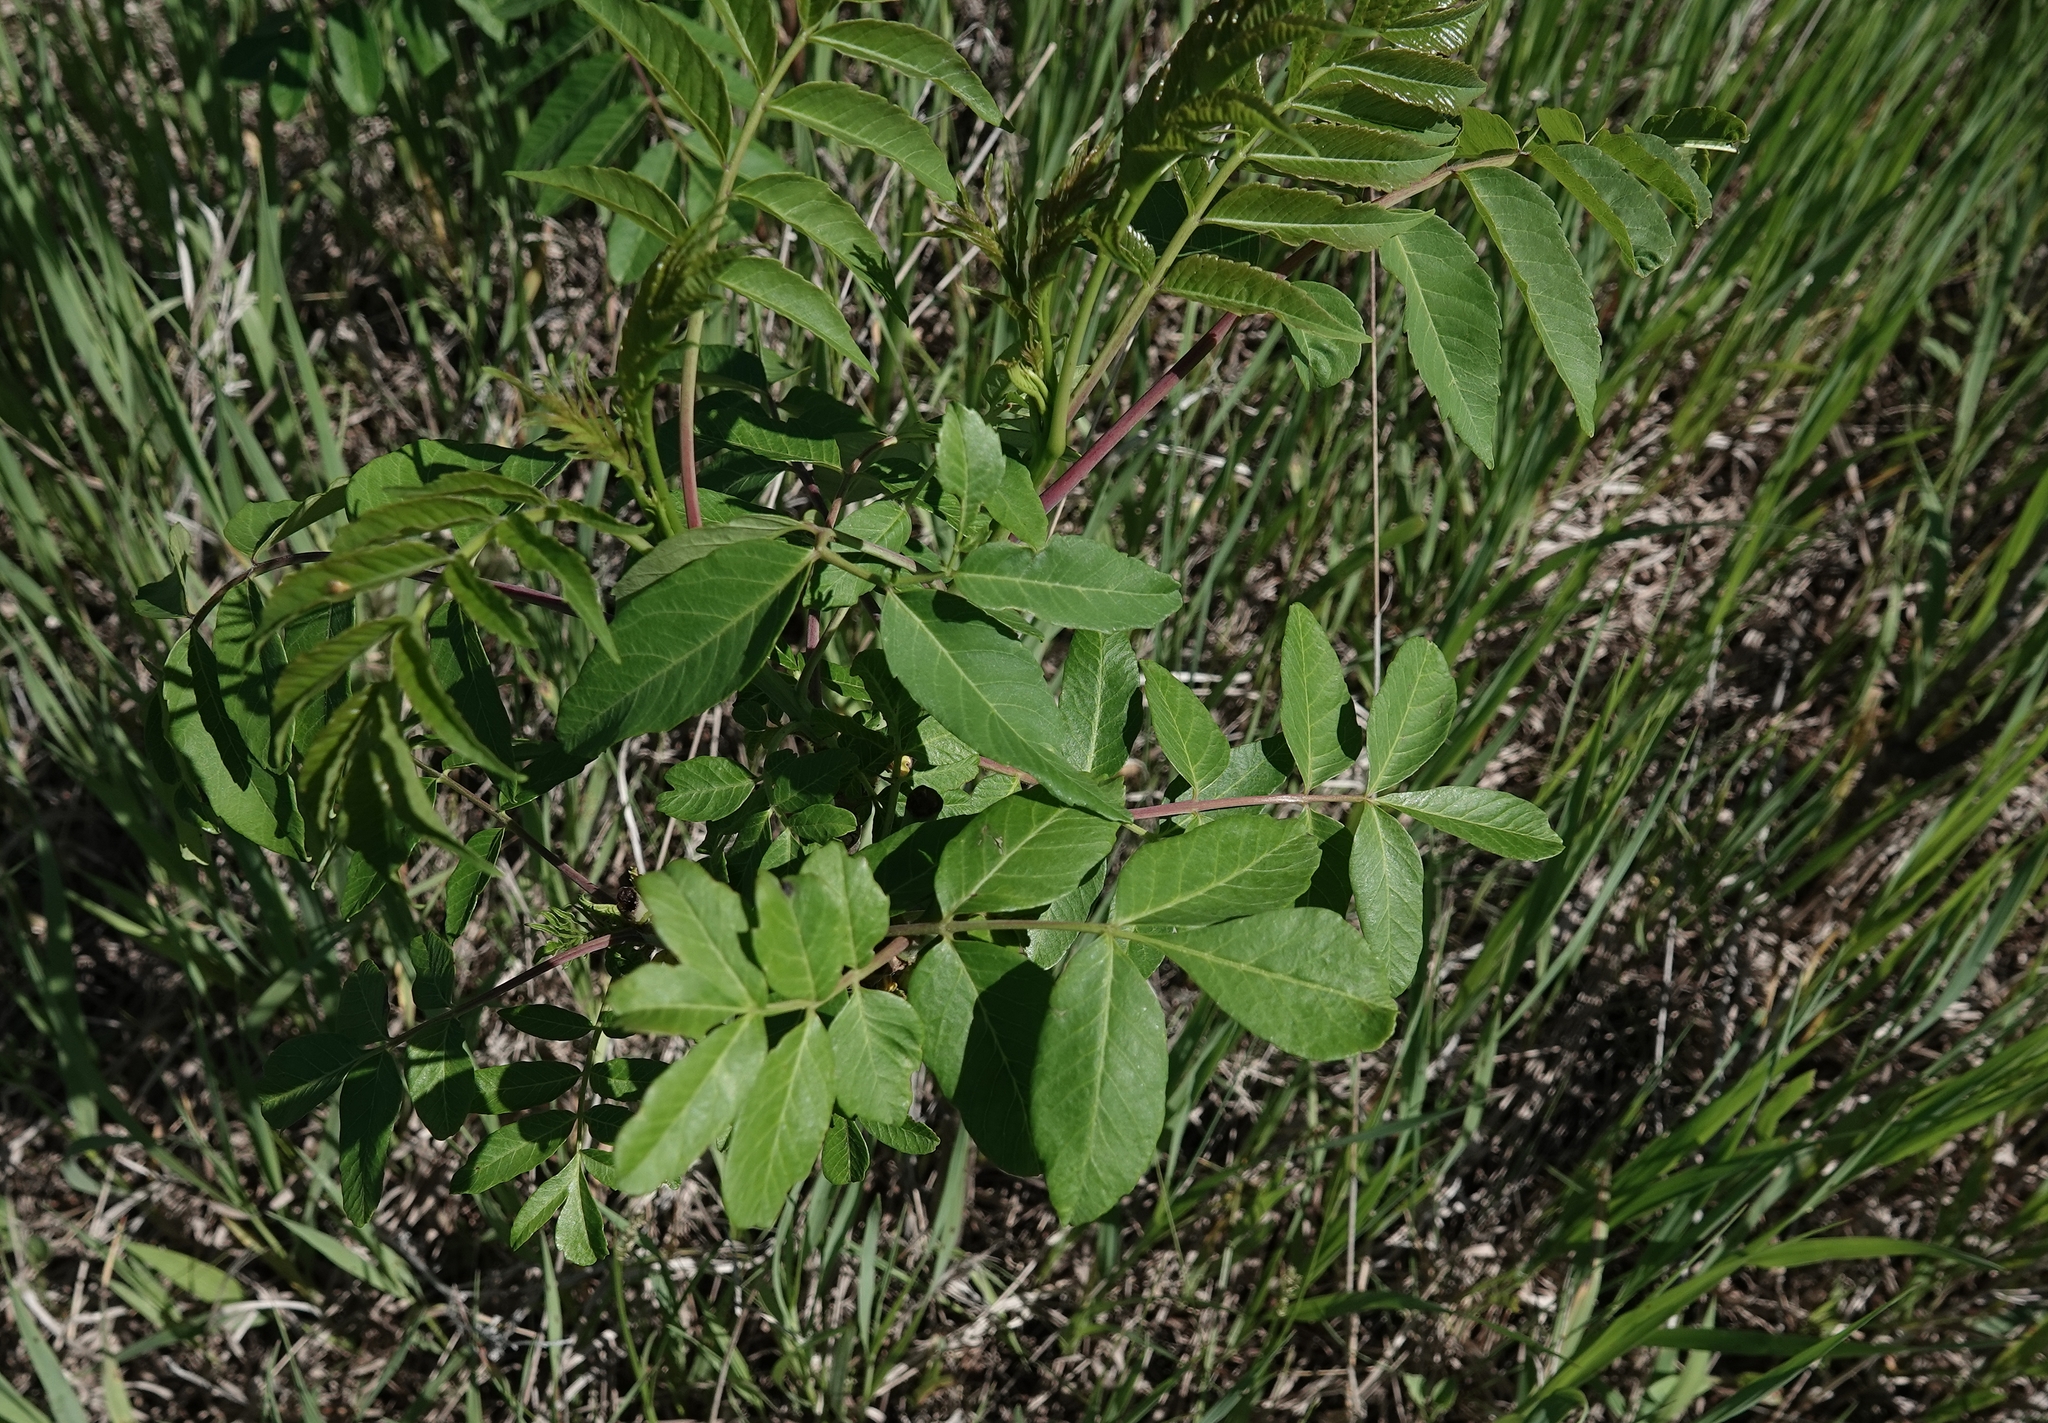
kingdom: Plantae
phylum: Tracheophyta
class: Magnoliopsida
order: Sapindales
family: Anacardiaceae
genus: Rhus
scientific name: Rhus glabra
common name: Scarlet sumac
